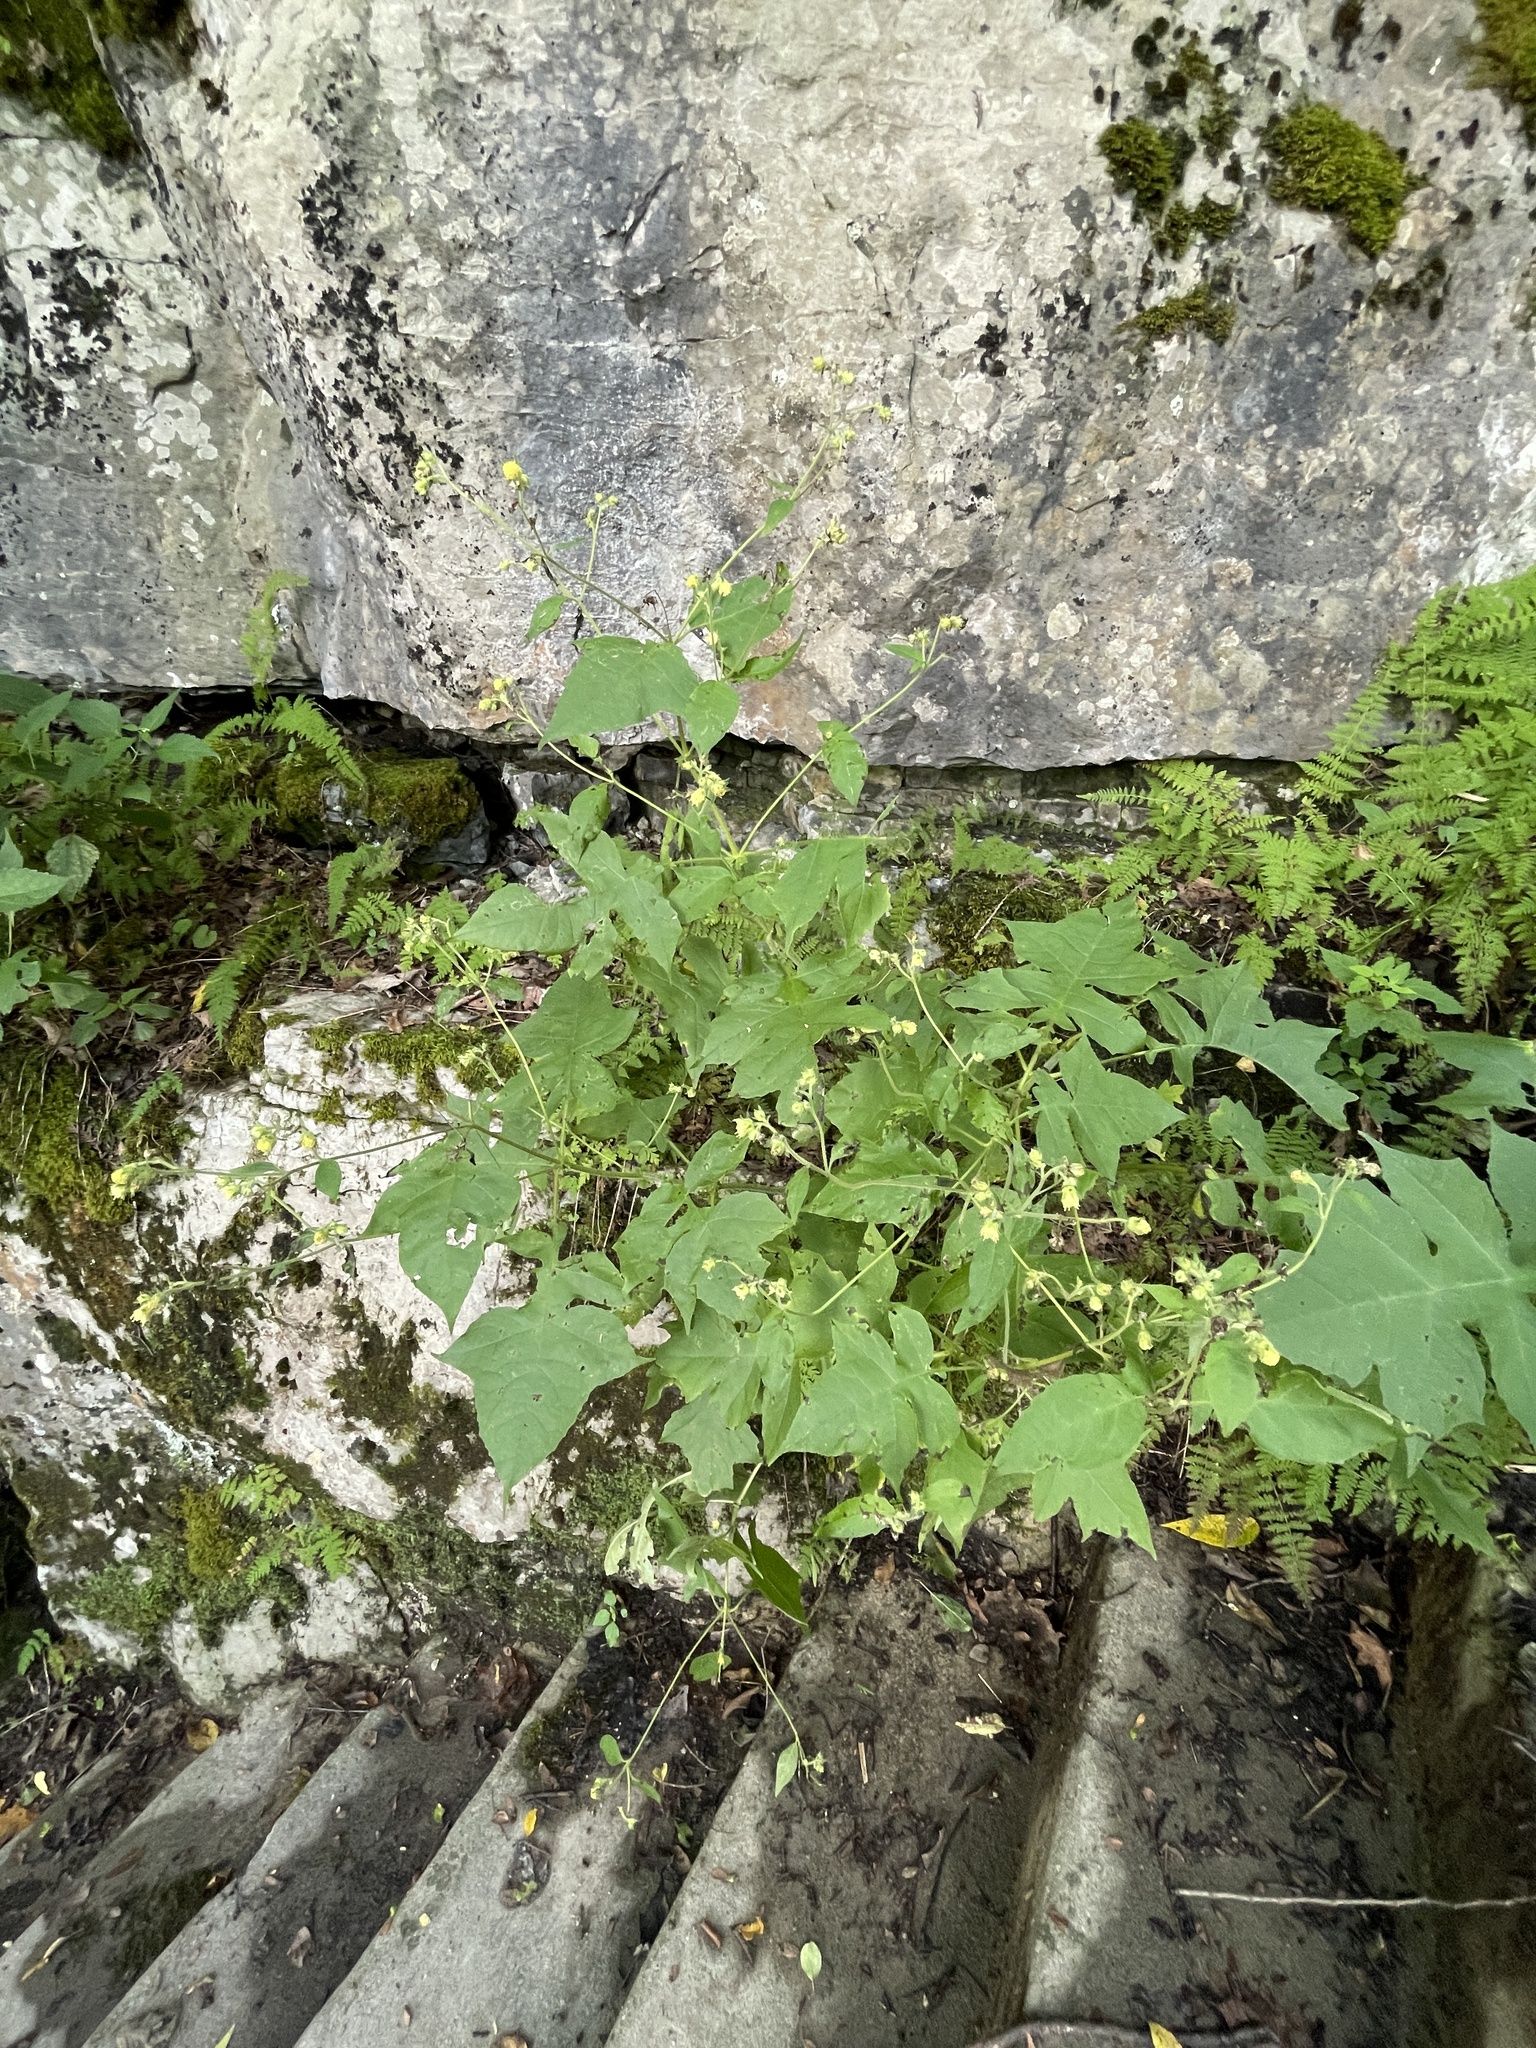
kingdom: Plantae
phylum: Tracheophyta
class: Magnoliopsida
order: Asterales
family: Asteraceae
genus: Polymnia
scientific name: Polymnia canadensis
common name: Pale-flowered leafcup
